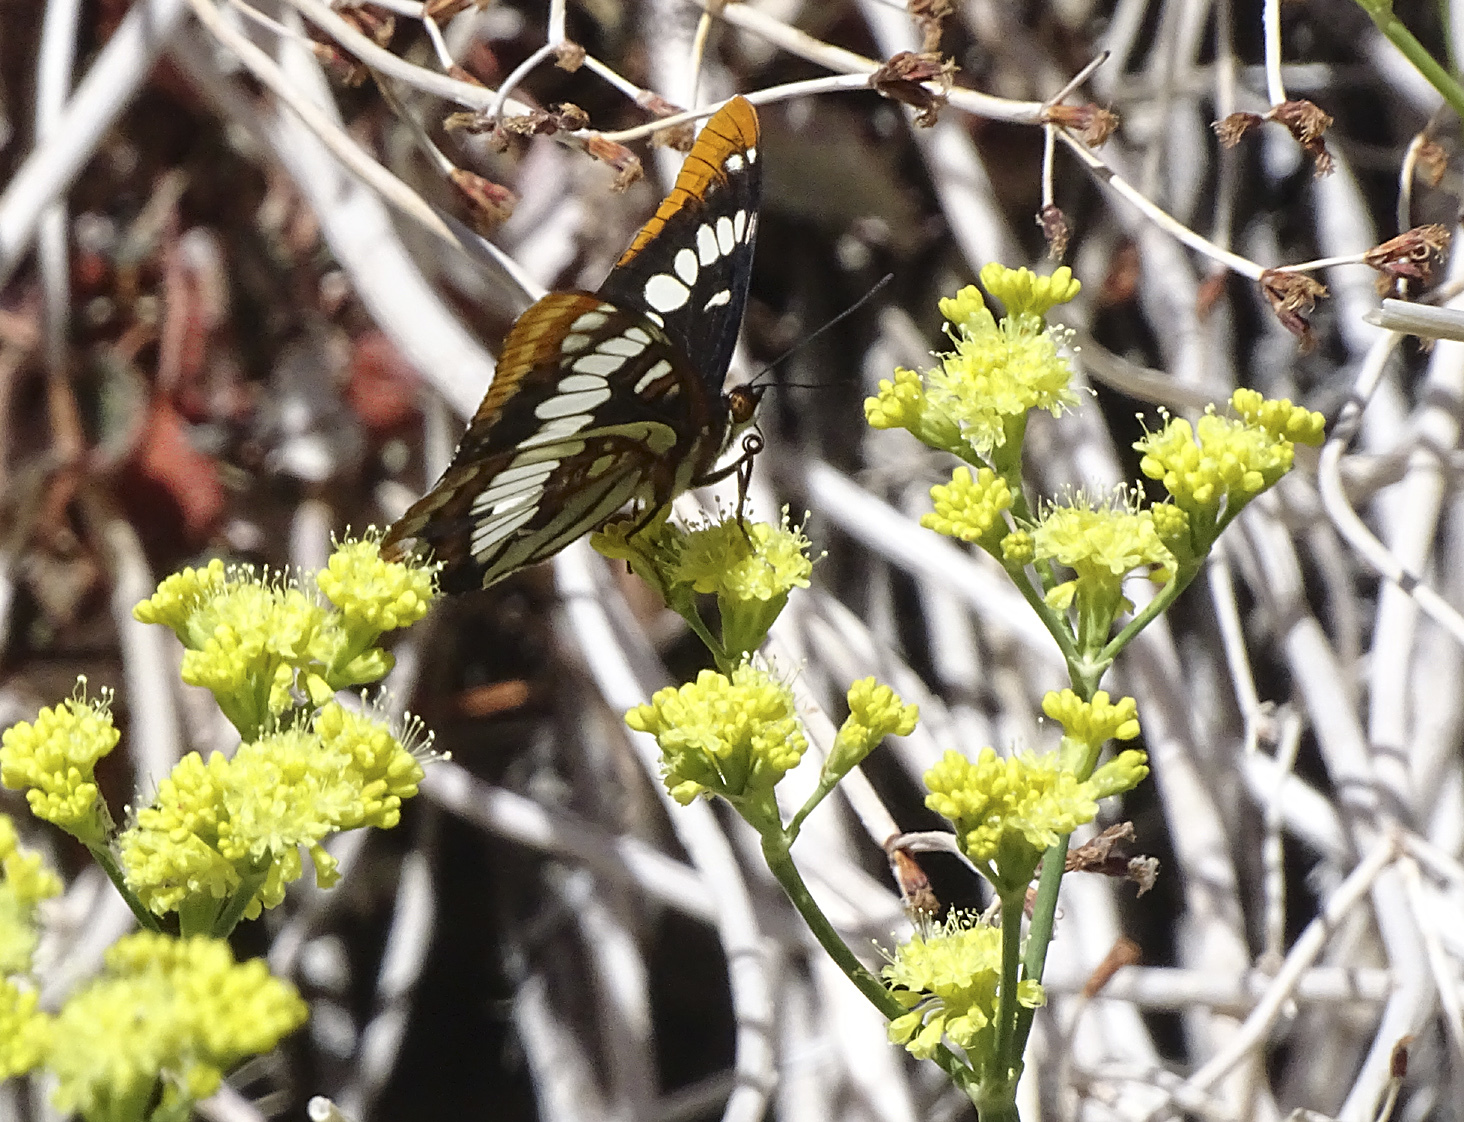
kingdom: Animalia
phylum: Arthropoda
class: Insecta
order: Lepidoptera
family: Nymphalidae
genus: Limenitis
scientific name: Limenitis lorquini
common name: Lorquin's admiral
